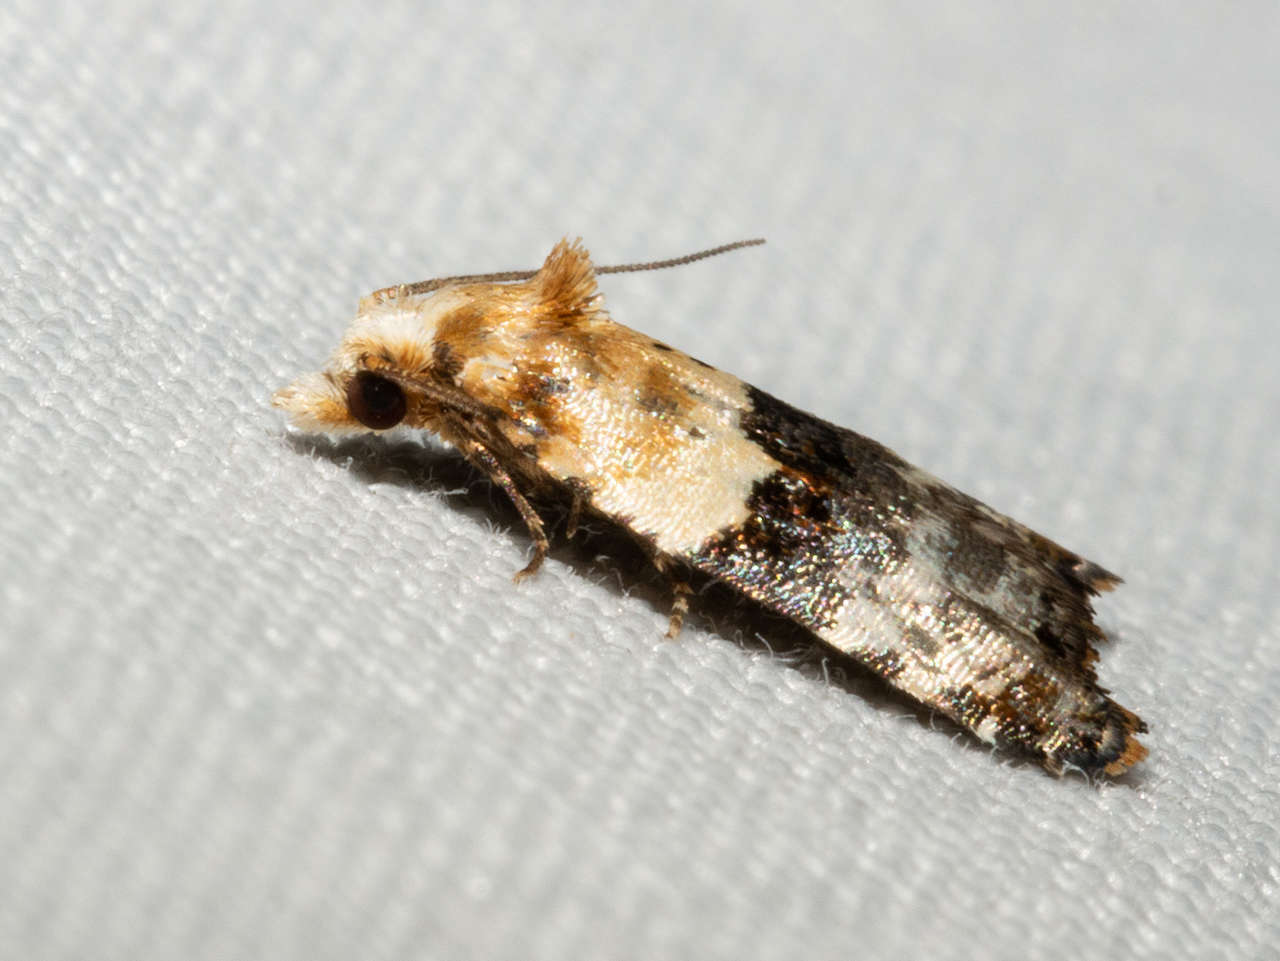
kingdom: Animalia
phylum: Arthropoda
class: Insecta
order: Lepidoptera
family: Tortricidae
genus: Authomaema
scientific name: Authomaema pentacosma
